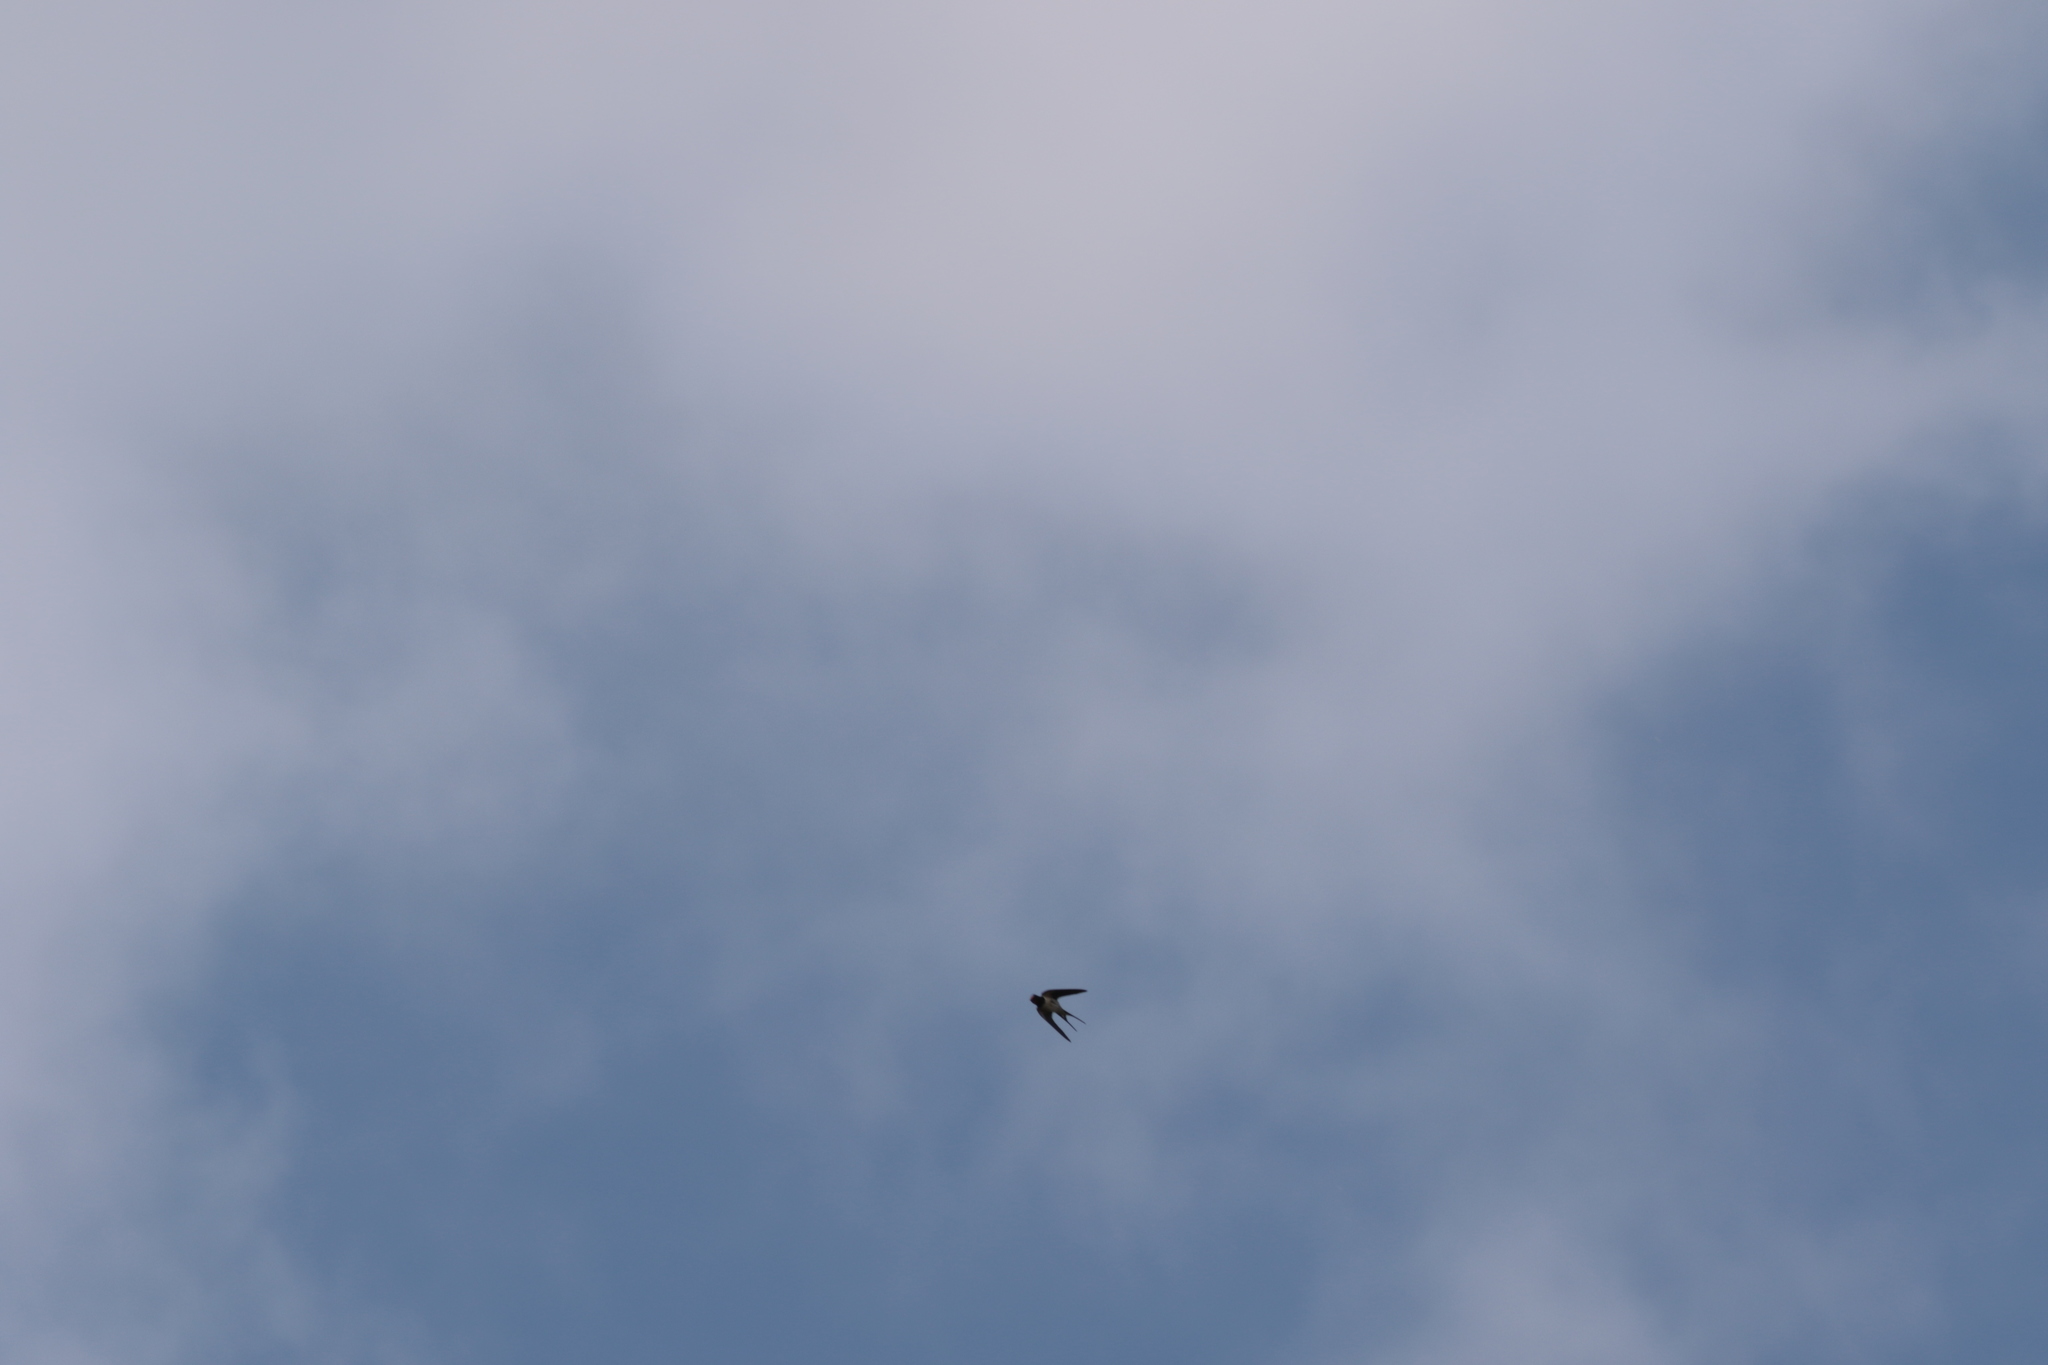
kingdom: Animalia
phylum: Chordata
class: Aves
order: Passeriformes
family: Hirundinidae
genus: Hirundo
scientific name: Hirundo rustica
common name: Barn swallow
